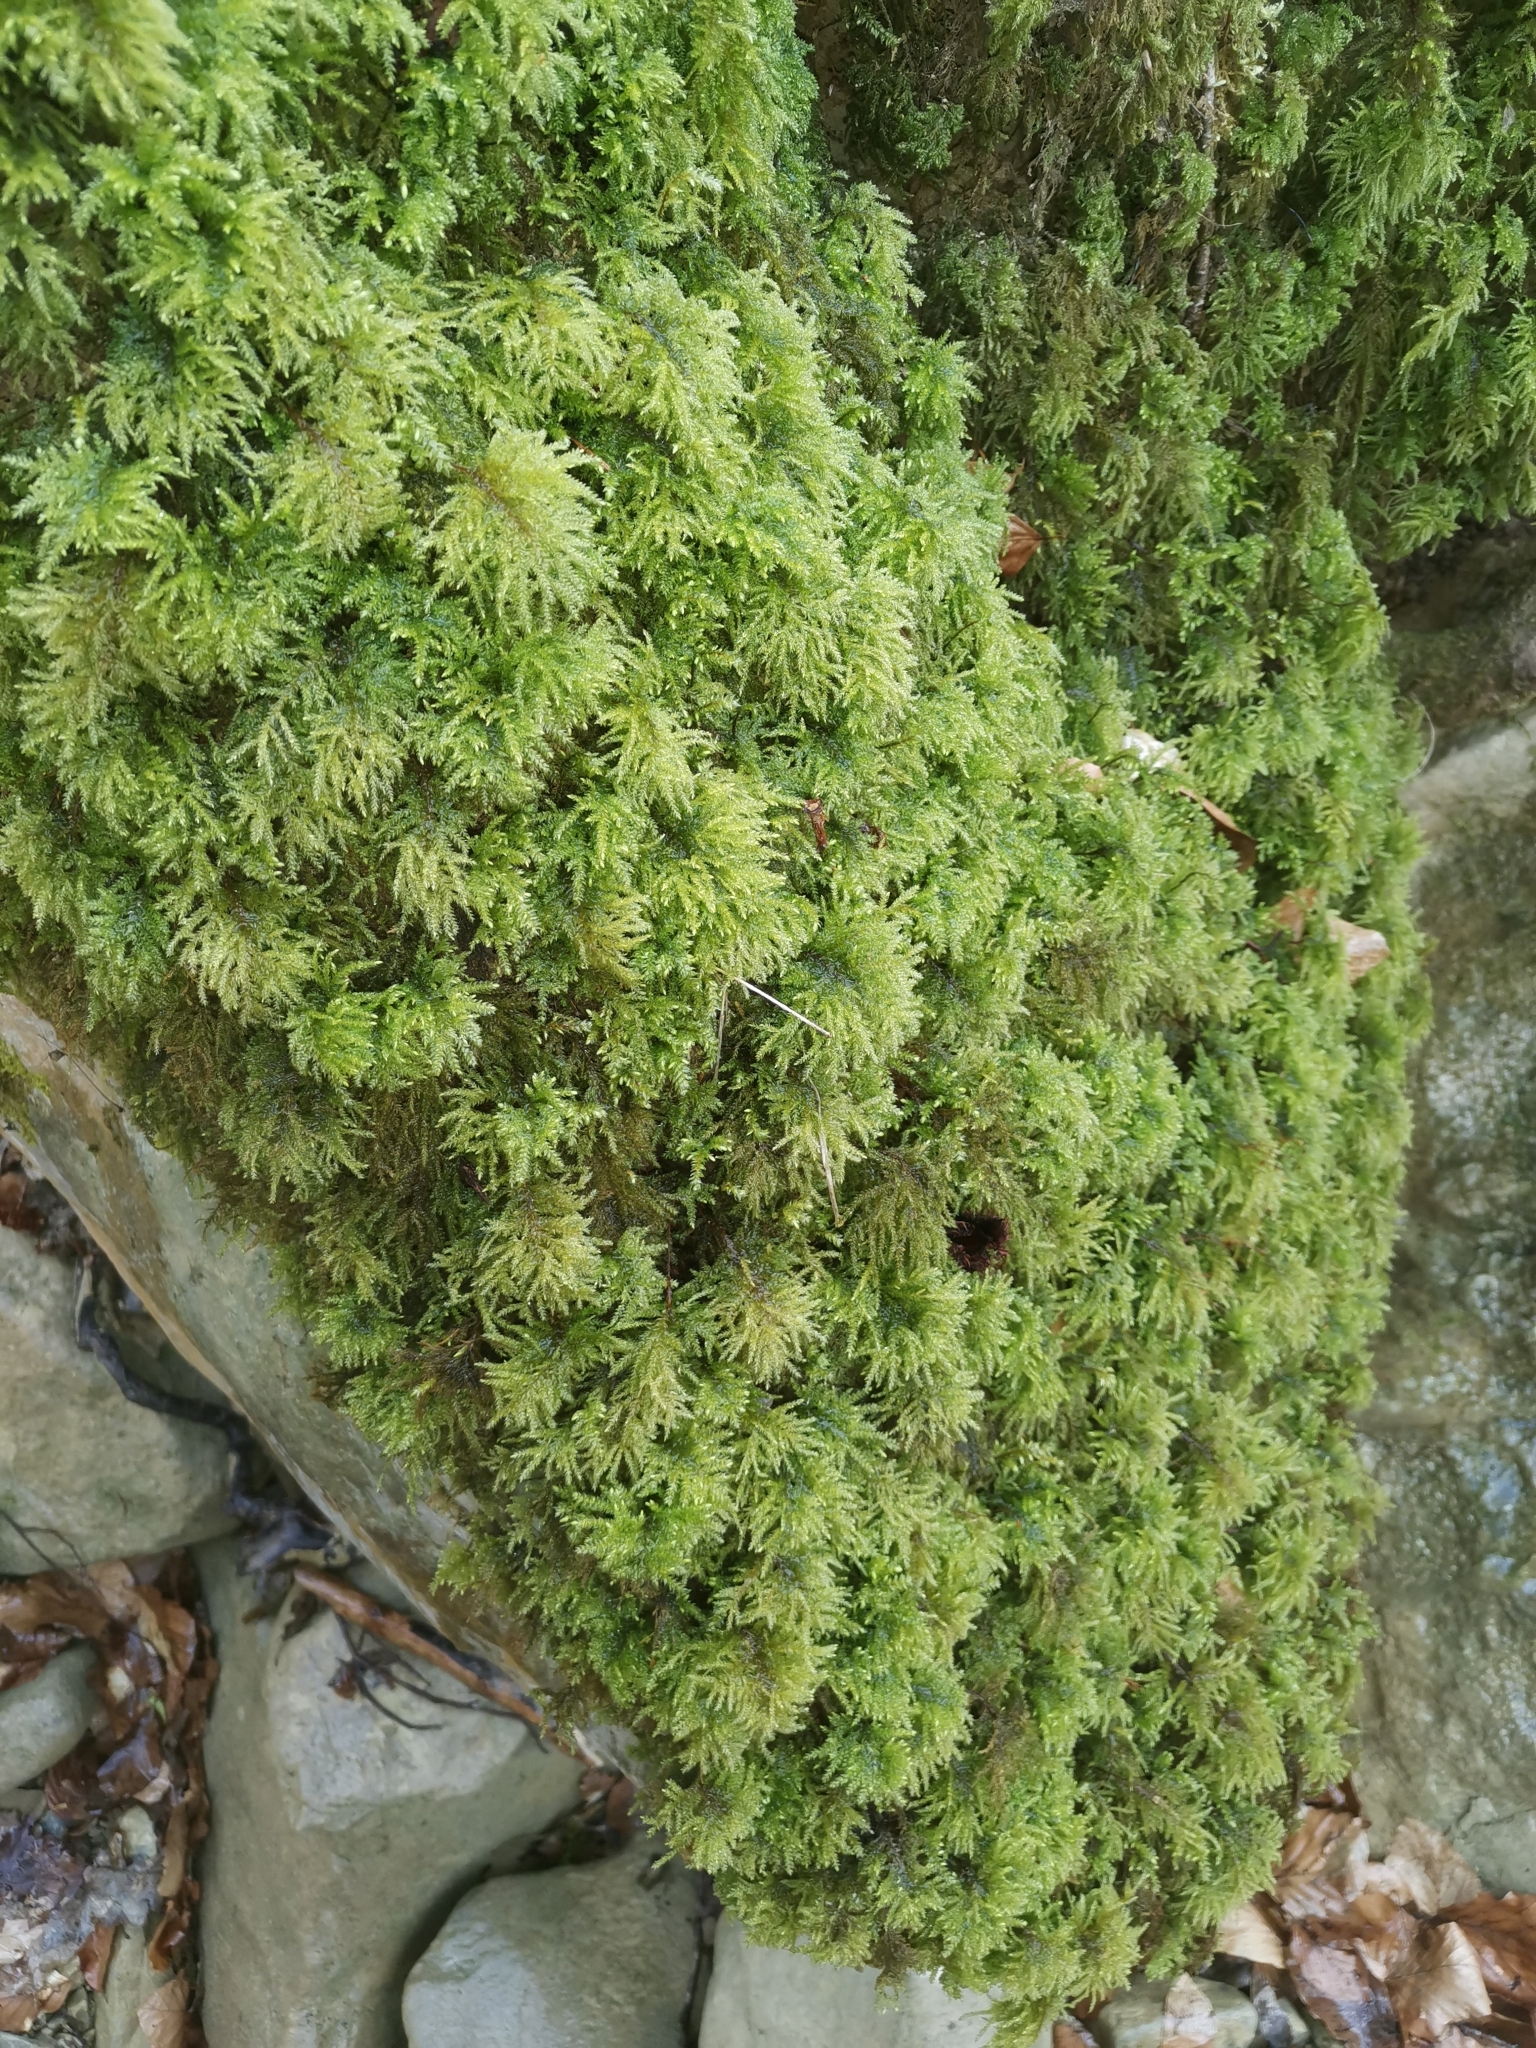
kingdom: Plantae
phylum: Bryophyta
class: Bryopsida
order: Hypnales
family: Neckeraceae
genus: Thamnobryum
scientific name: Thamnobryum alopecurum
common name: Fox-tail feather-moss
